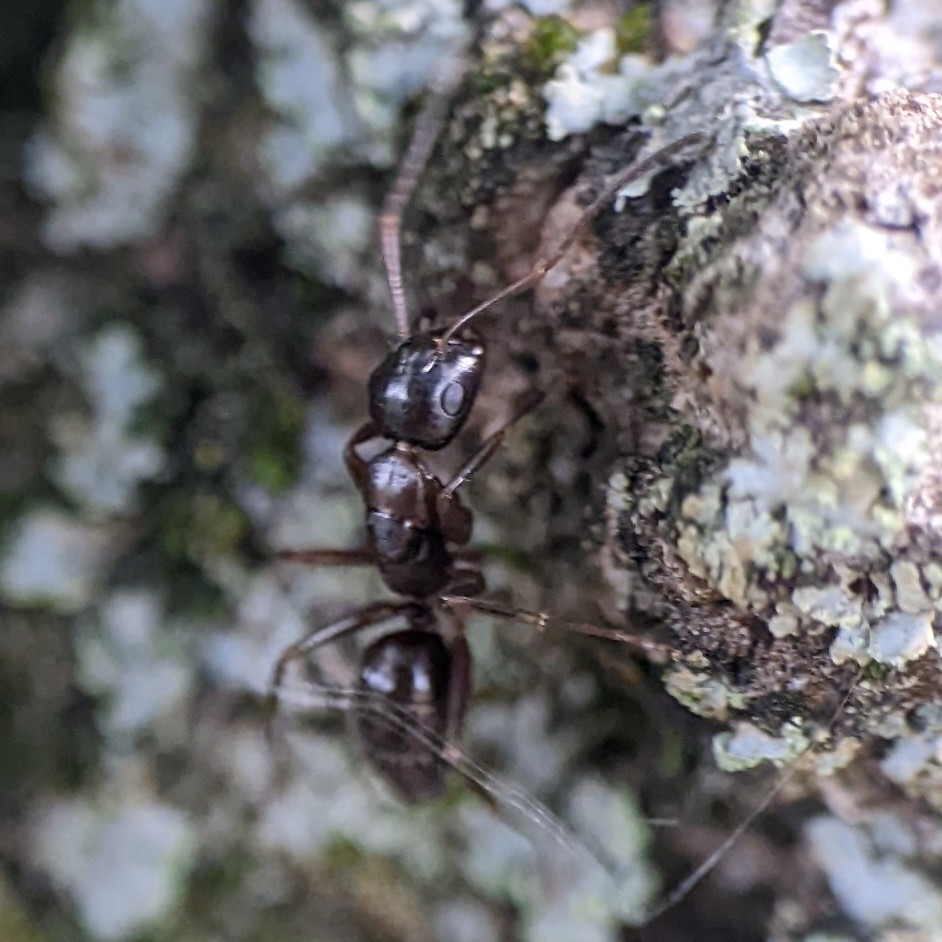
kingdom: Animalia
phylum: Arthropoda
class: Insecta
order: Hymenoptera
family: Formicidae
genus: Camponotus
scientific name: Camponotus nearcticus
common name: Smaller carpenter ant
